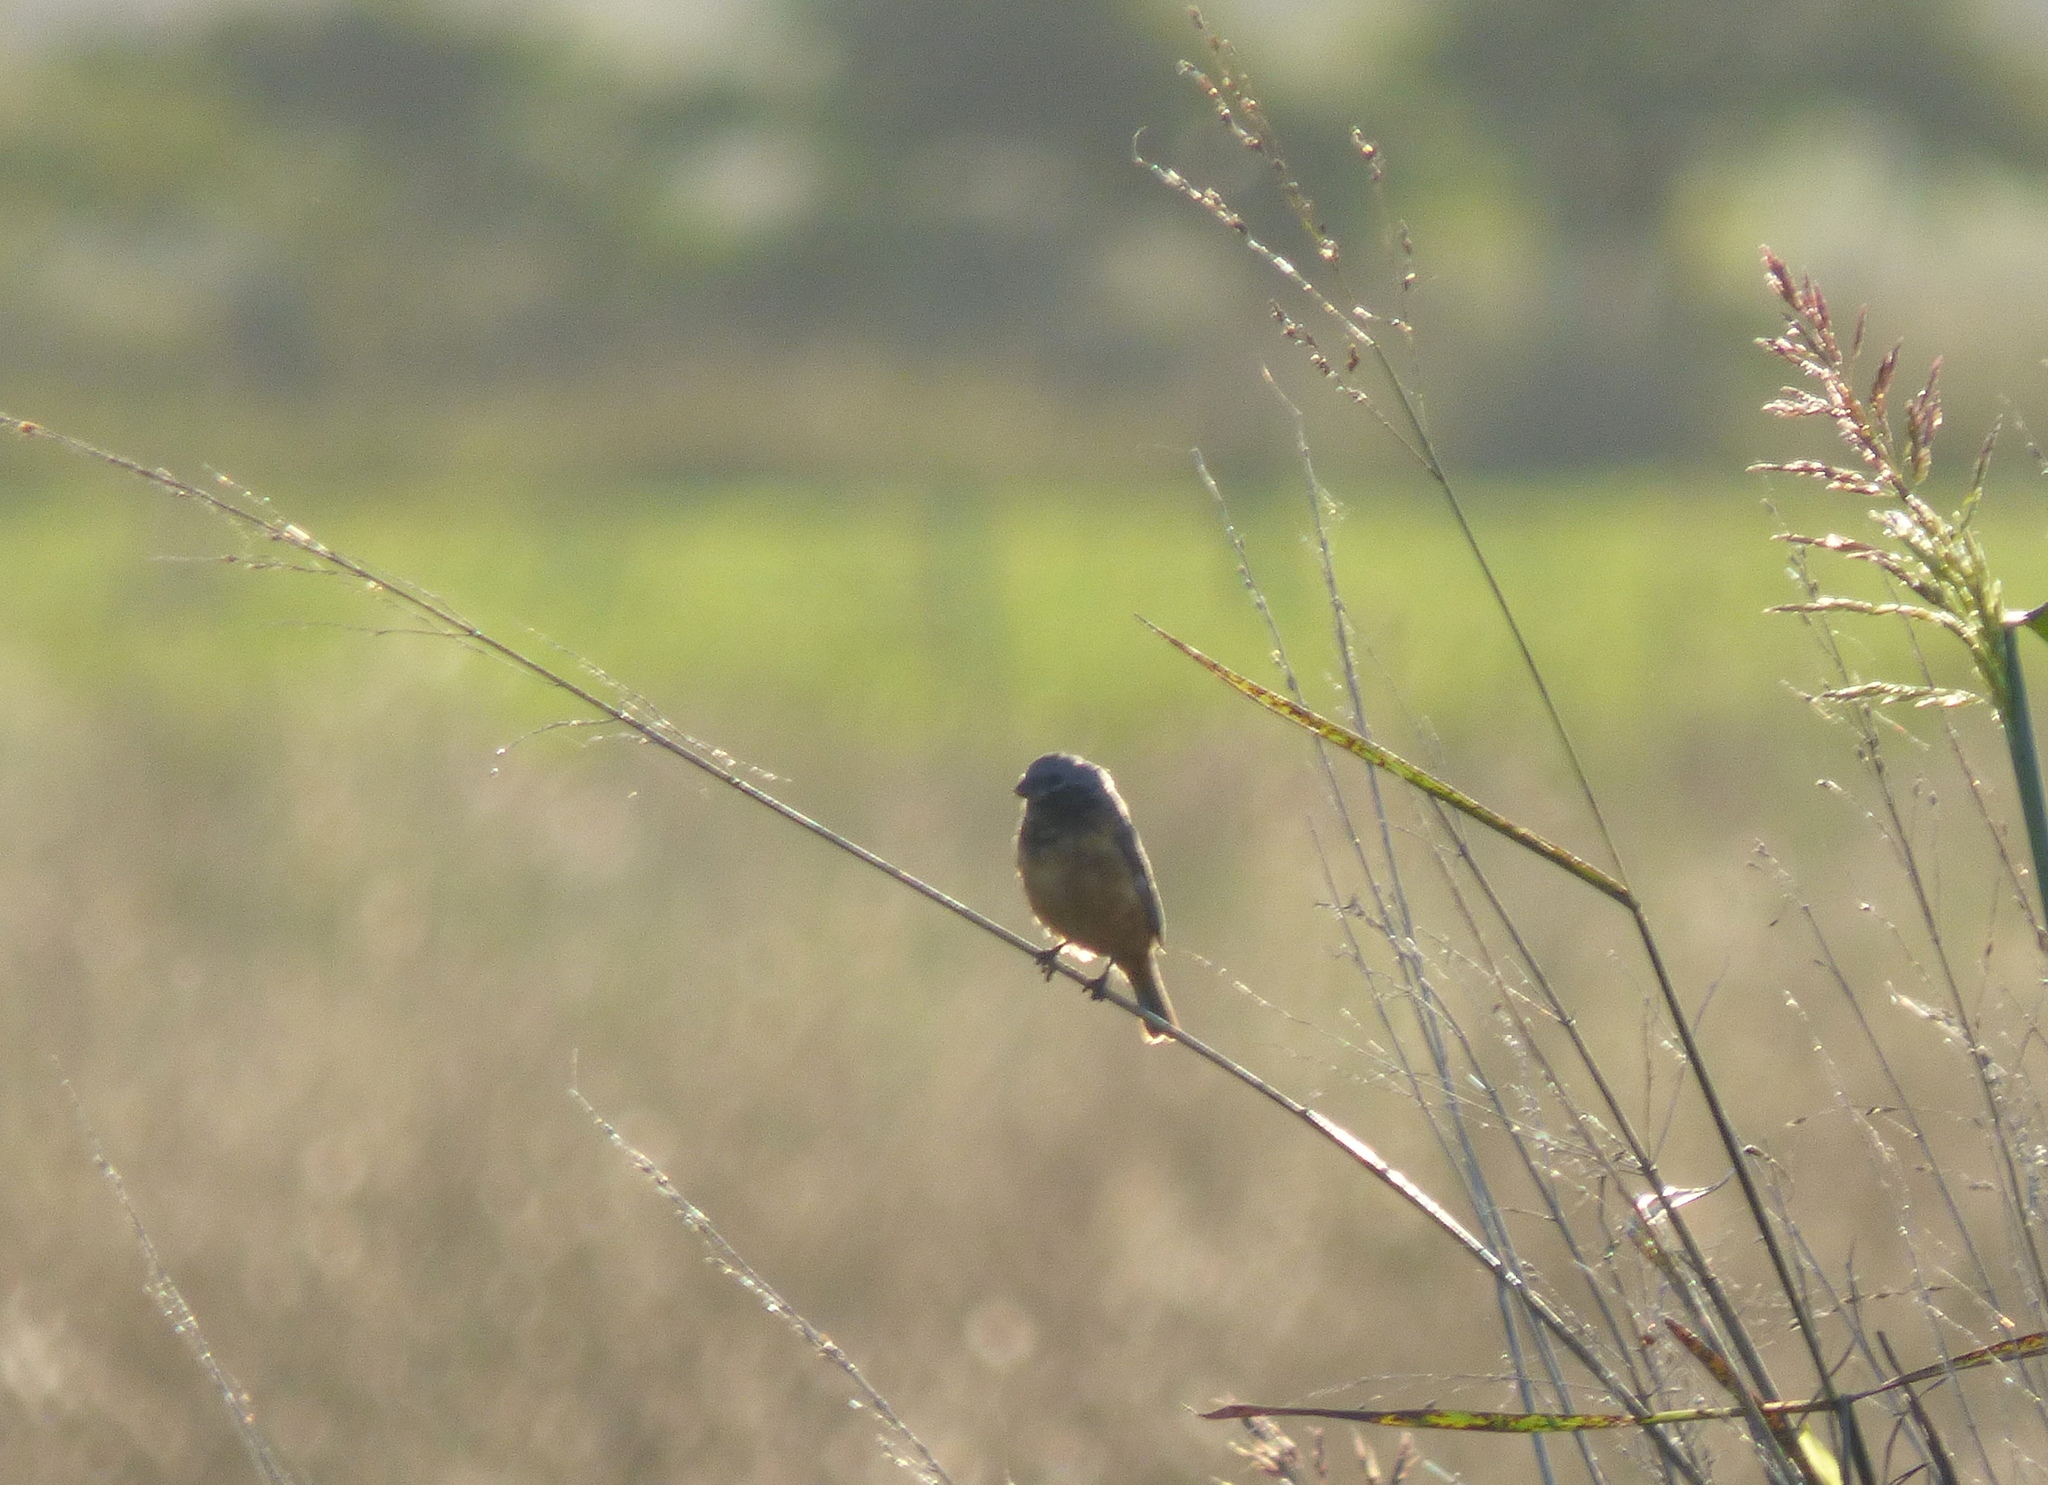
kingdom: Animalia
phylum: Chordata
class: Aves
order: Passeriformes
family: Thraupidae
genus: Sporophila
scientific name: Sporophila ruficollis
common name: Dark-throated seedeater
